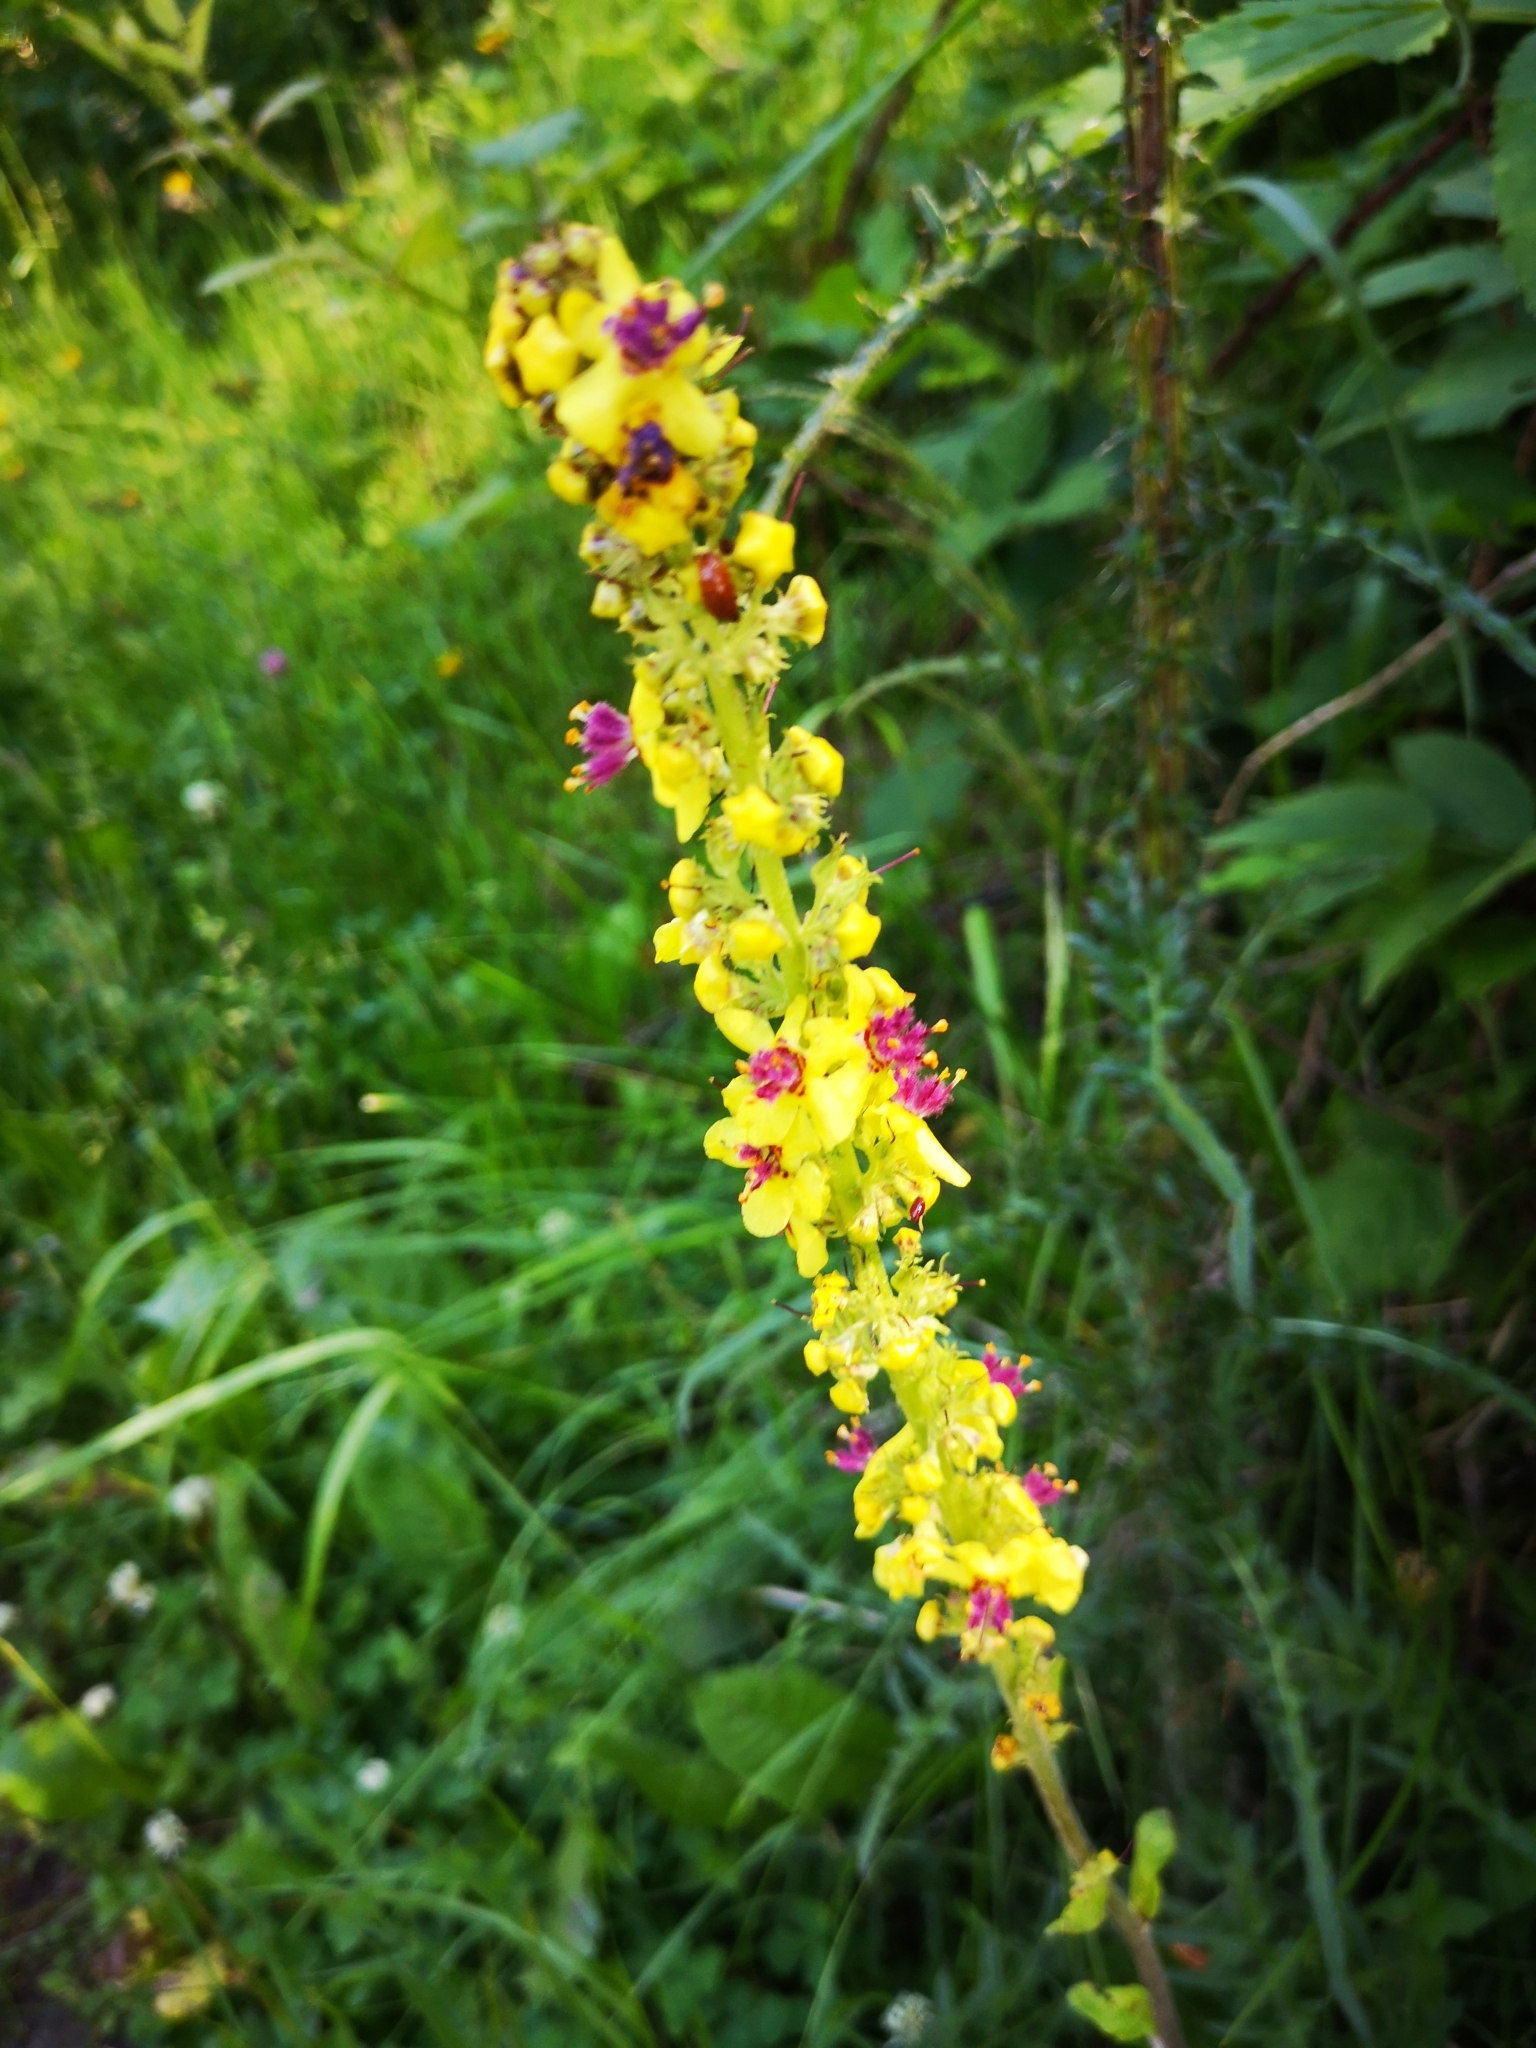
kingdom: Plantae
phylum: Tracheophyta
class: Magnoliopsida
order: Lamiales
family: Scrophulariaceae
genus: Verbascum
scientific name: Verbascum nigrum
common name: Dark mullein
